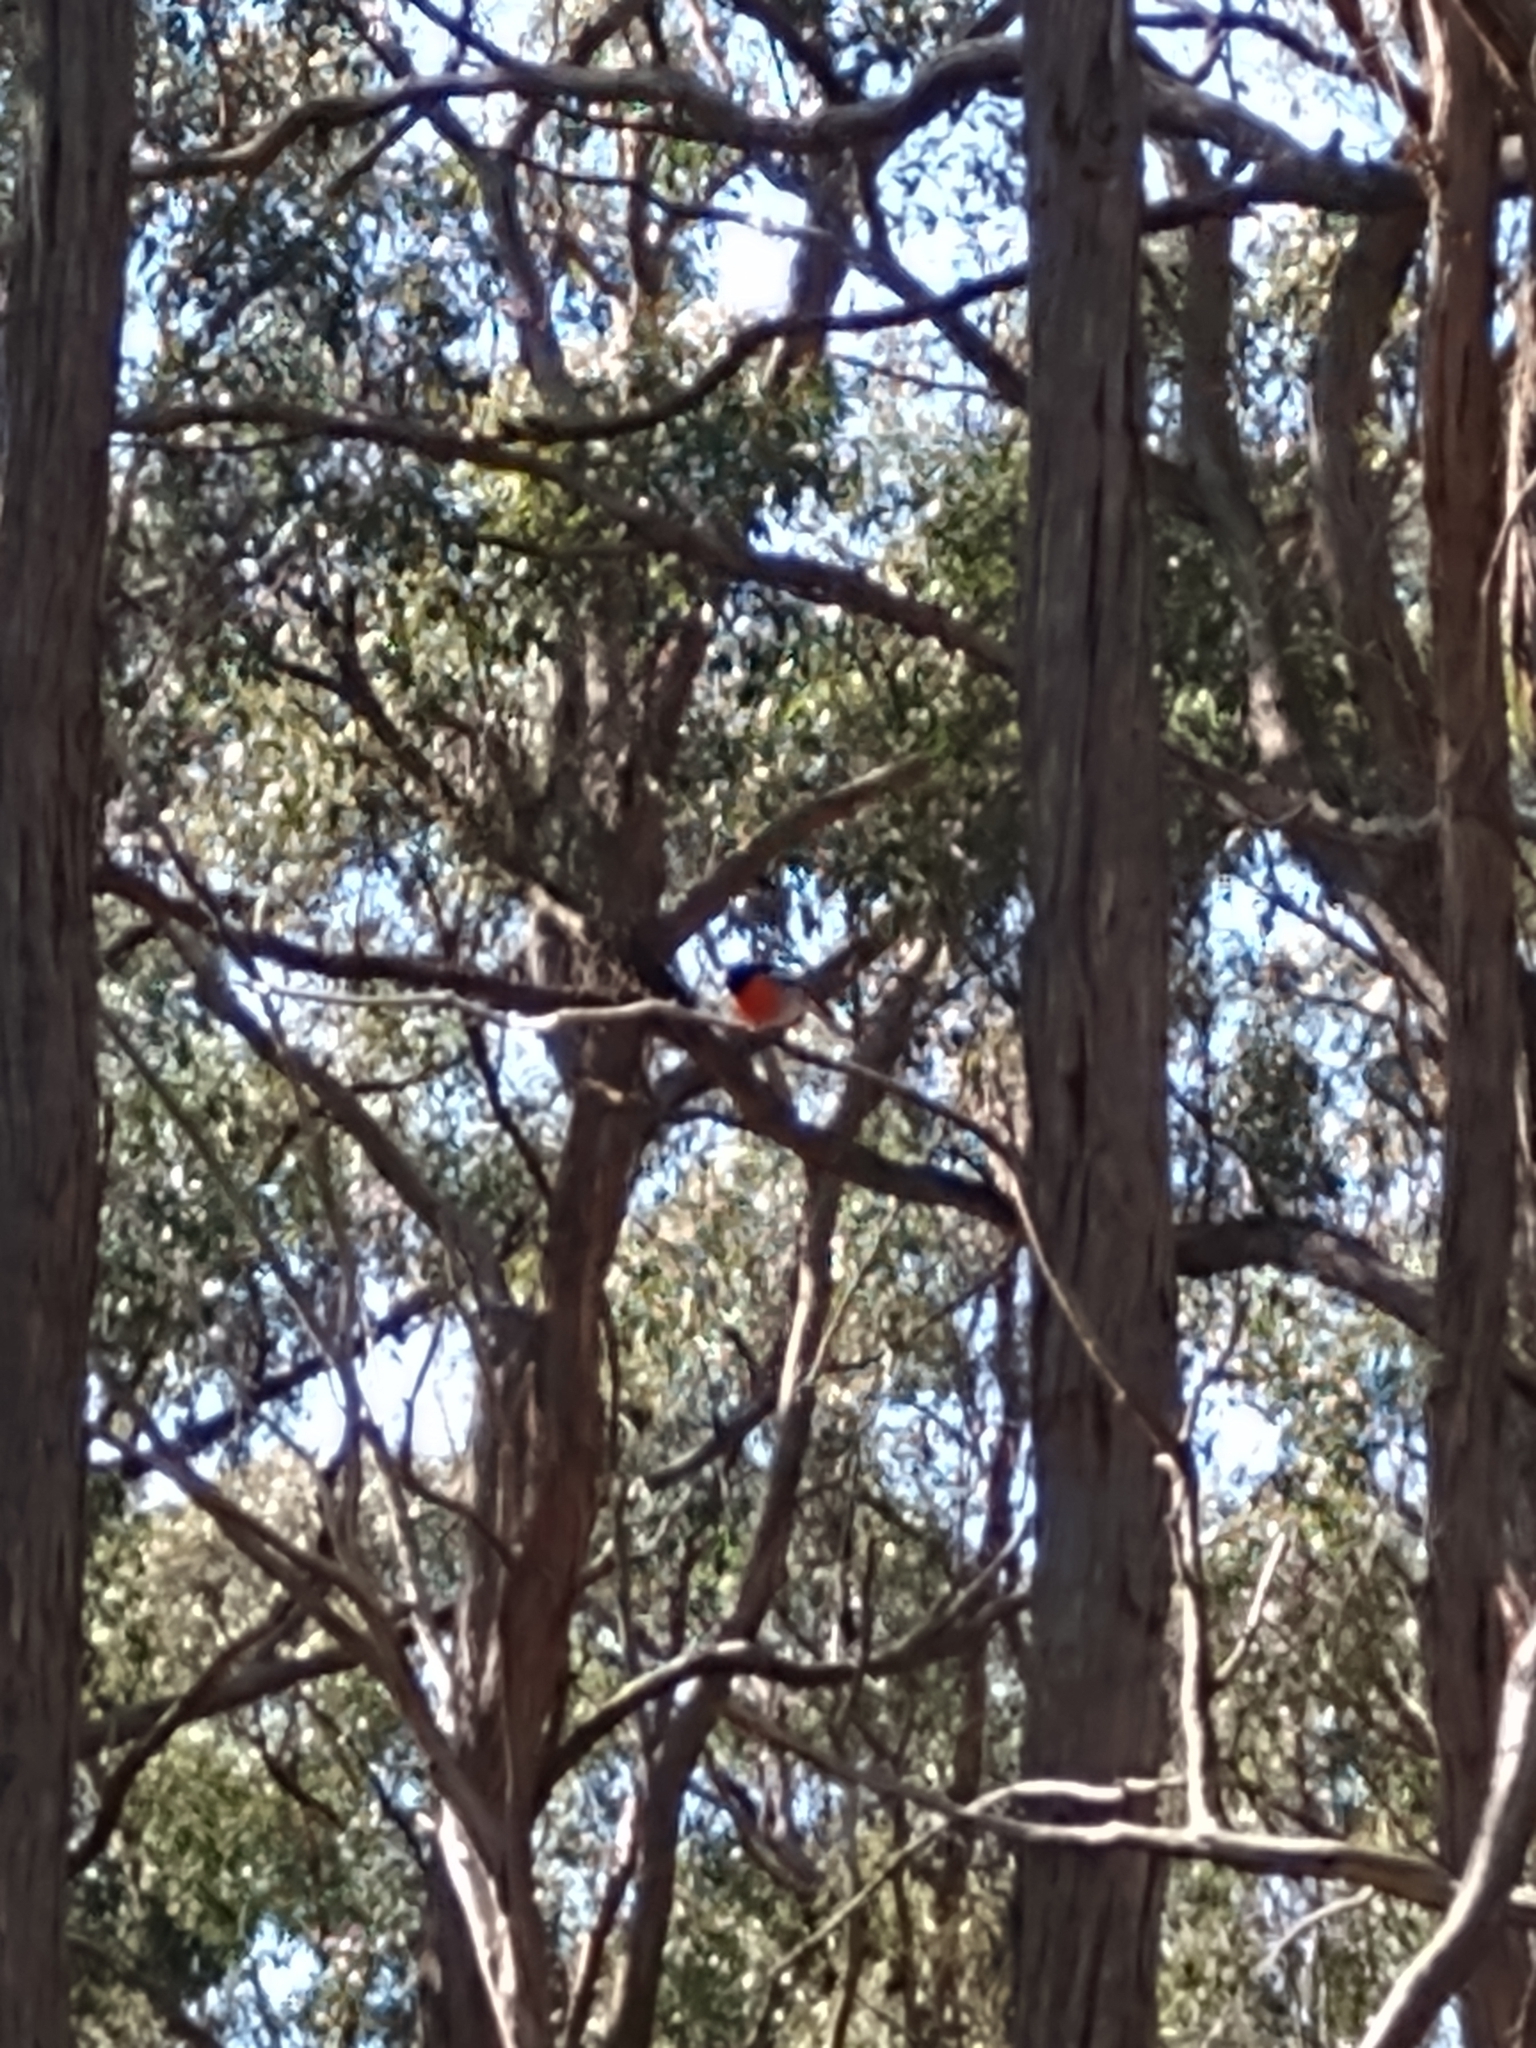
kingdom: Animalia
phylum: Chordata
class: Aves
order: Passeriformes
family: Petroicidae
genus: Petroica
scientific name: Petroica boodang
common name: Scarlet robin
